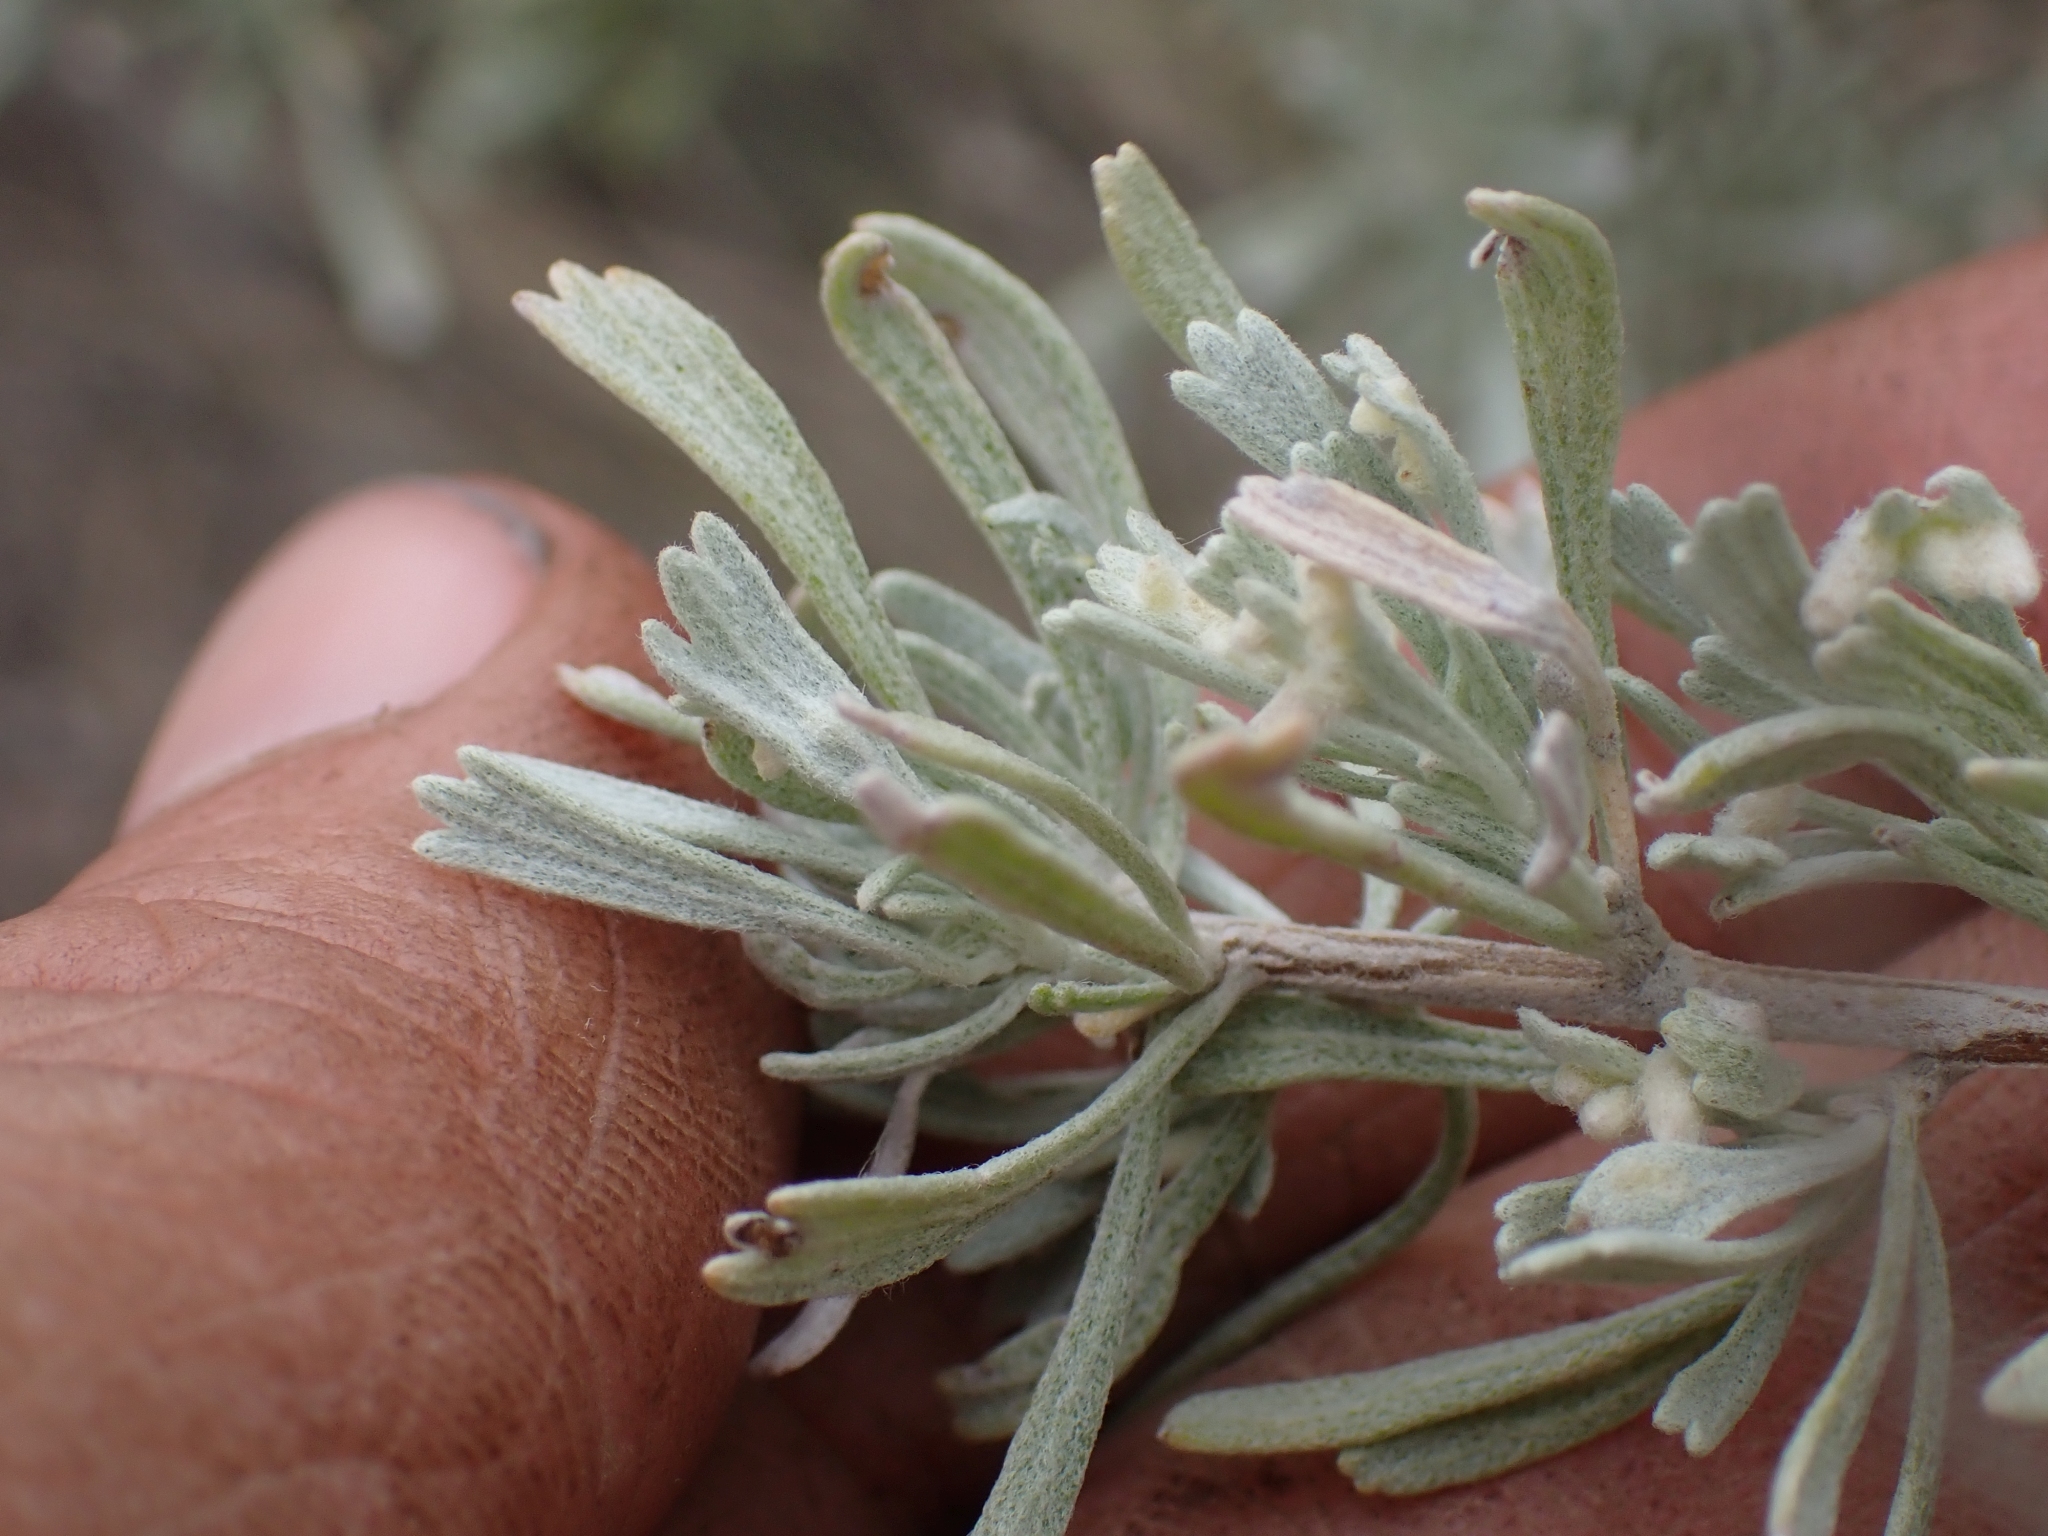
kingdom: Plantae
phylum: Tracheophyta
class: Magnoliopsida
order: Asterales
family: Asteraceae
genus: Artemisia
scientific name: Artemisia tridentata
